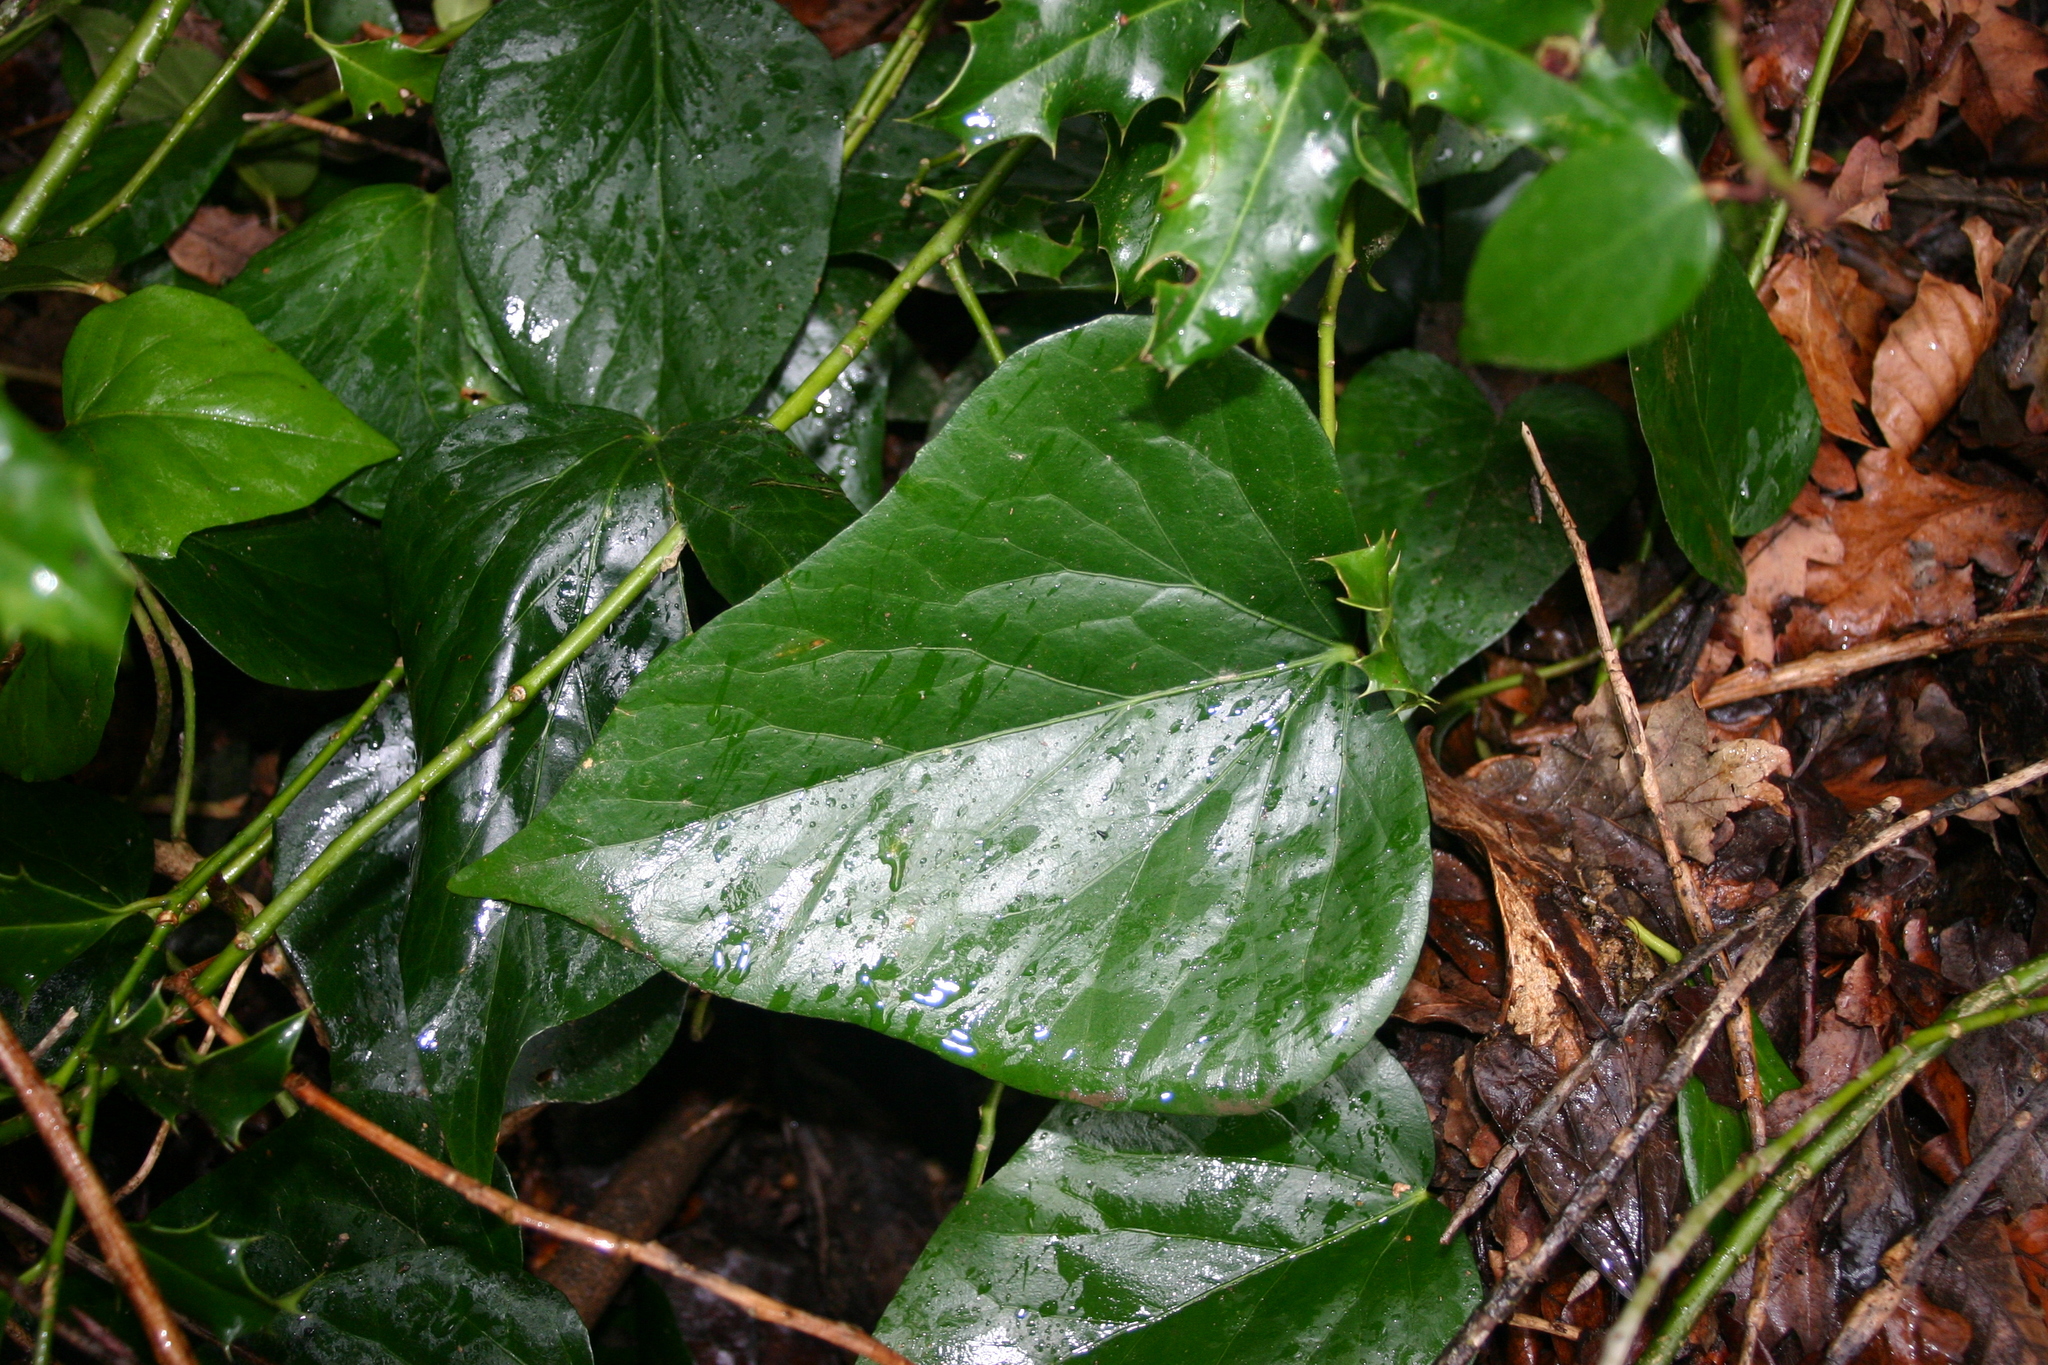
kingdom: Plantae
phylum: Tracheophyta
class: Magnoliopsida
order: Apiales
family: Araliaceae
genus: Hedera
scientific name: Hedera colchica
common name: Persian ivy
